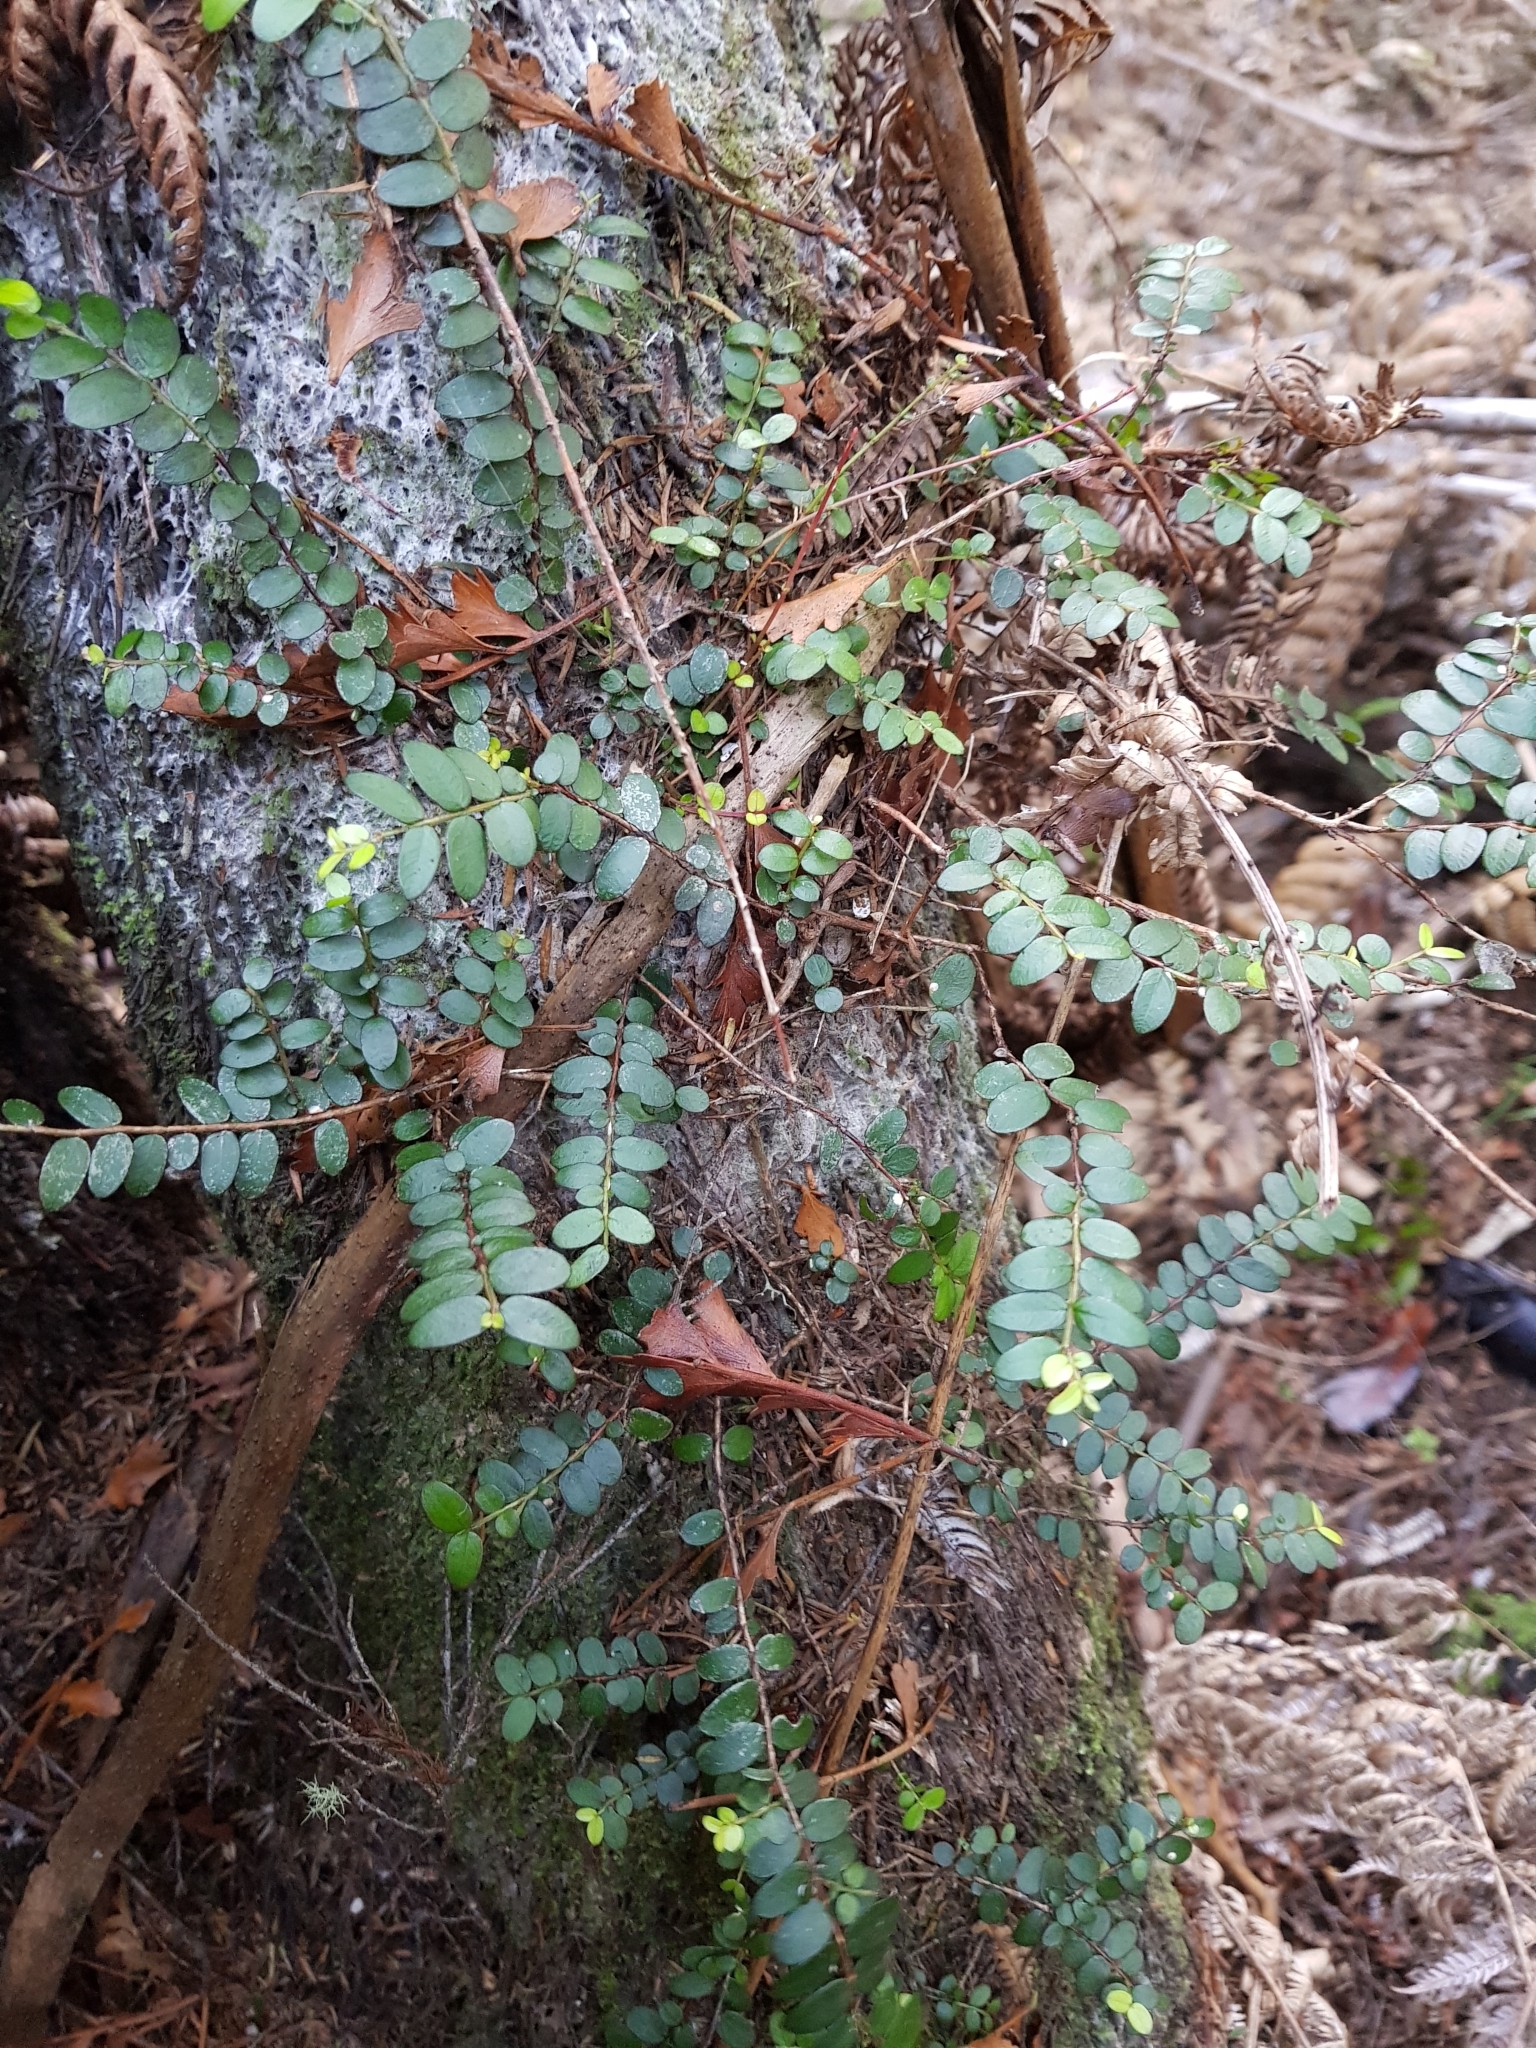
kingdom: Plantae
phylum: Tracheophyta
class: Magnoliopsida
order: Myrtales
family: Myrtaceae
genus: Metrosideros
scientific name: Metrosideros diffusa
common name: Small ratavine
